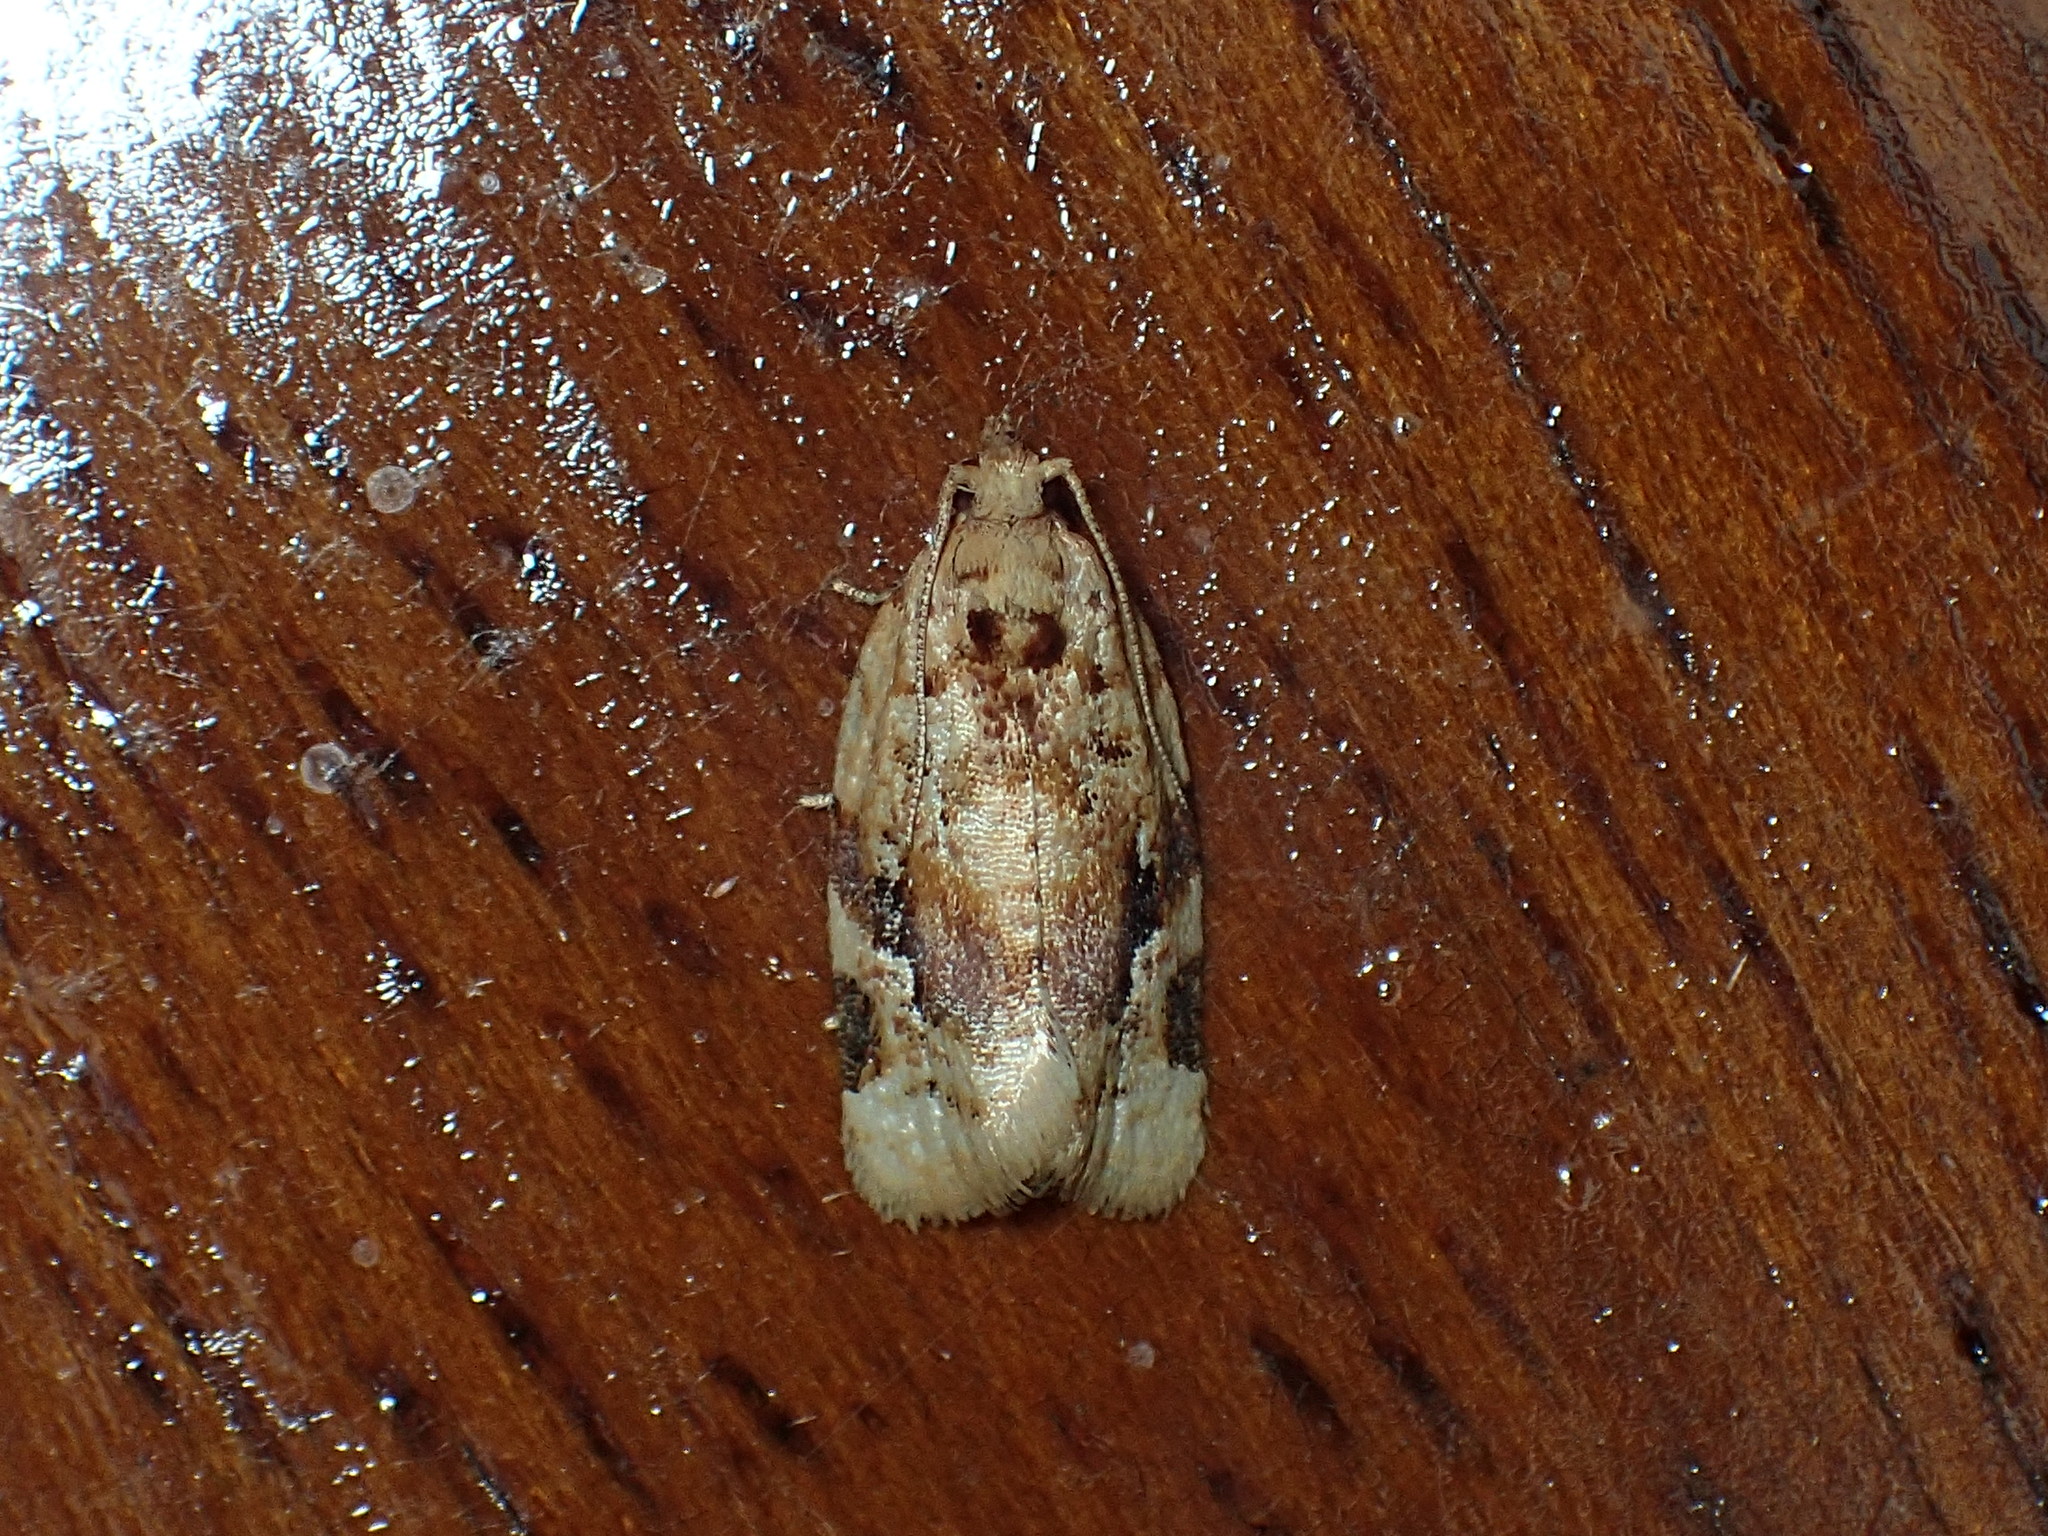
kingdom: Animalia
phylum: Arthropoda
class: Insecta
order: Lepidoptera
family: Tortricidae
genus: Argyrotaenia
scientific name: Argyrotaenia velutinana
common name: Red-banded leafroller moth
